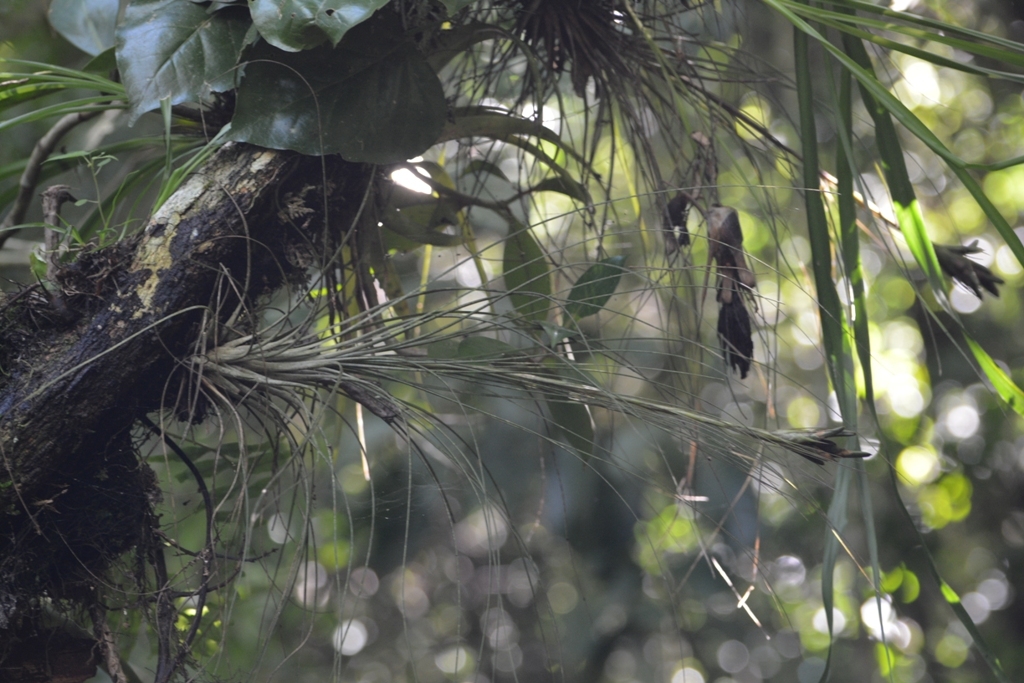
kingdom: Plantae
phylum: Tracheophyta
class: Liliopsida
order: Poales
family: Bromeliaceae
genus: Tillandsia
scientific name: Tillandsia juncea
